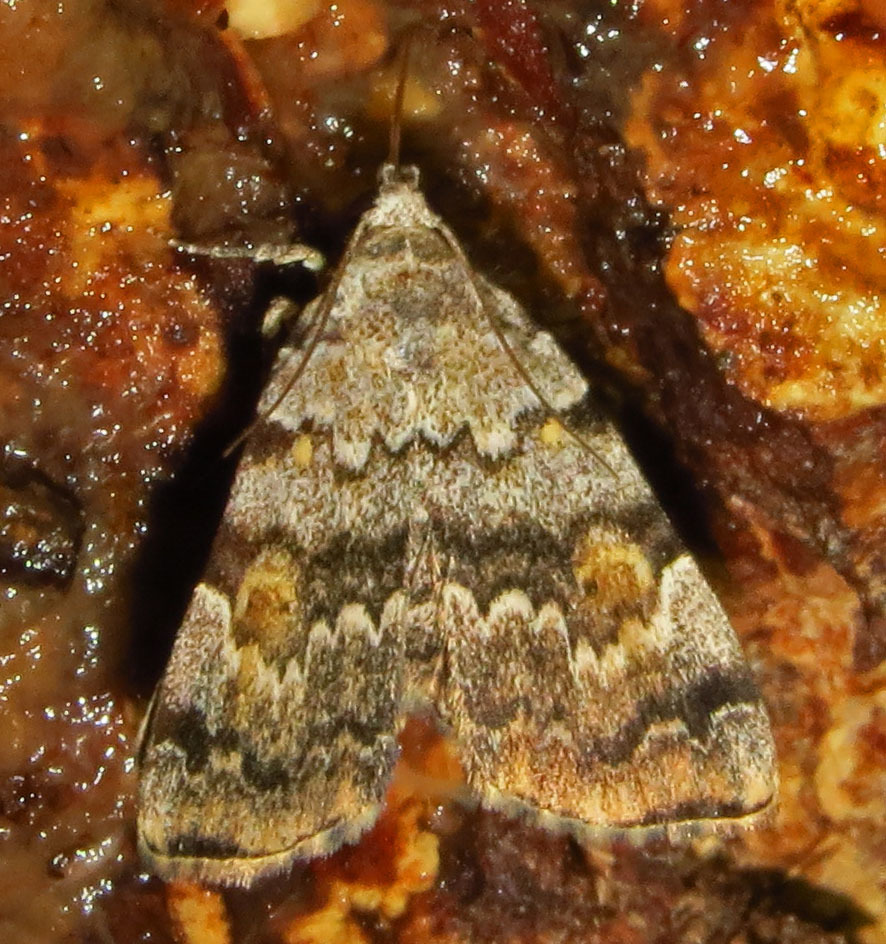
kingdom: Animalia
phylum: Arthropoda
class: Insecta
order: Lepidoptera
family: Erebidae
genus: Idia
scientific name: Idia americalis
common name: American idia moth
